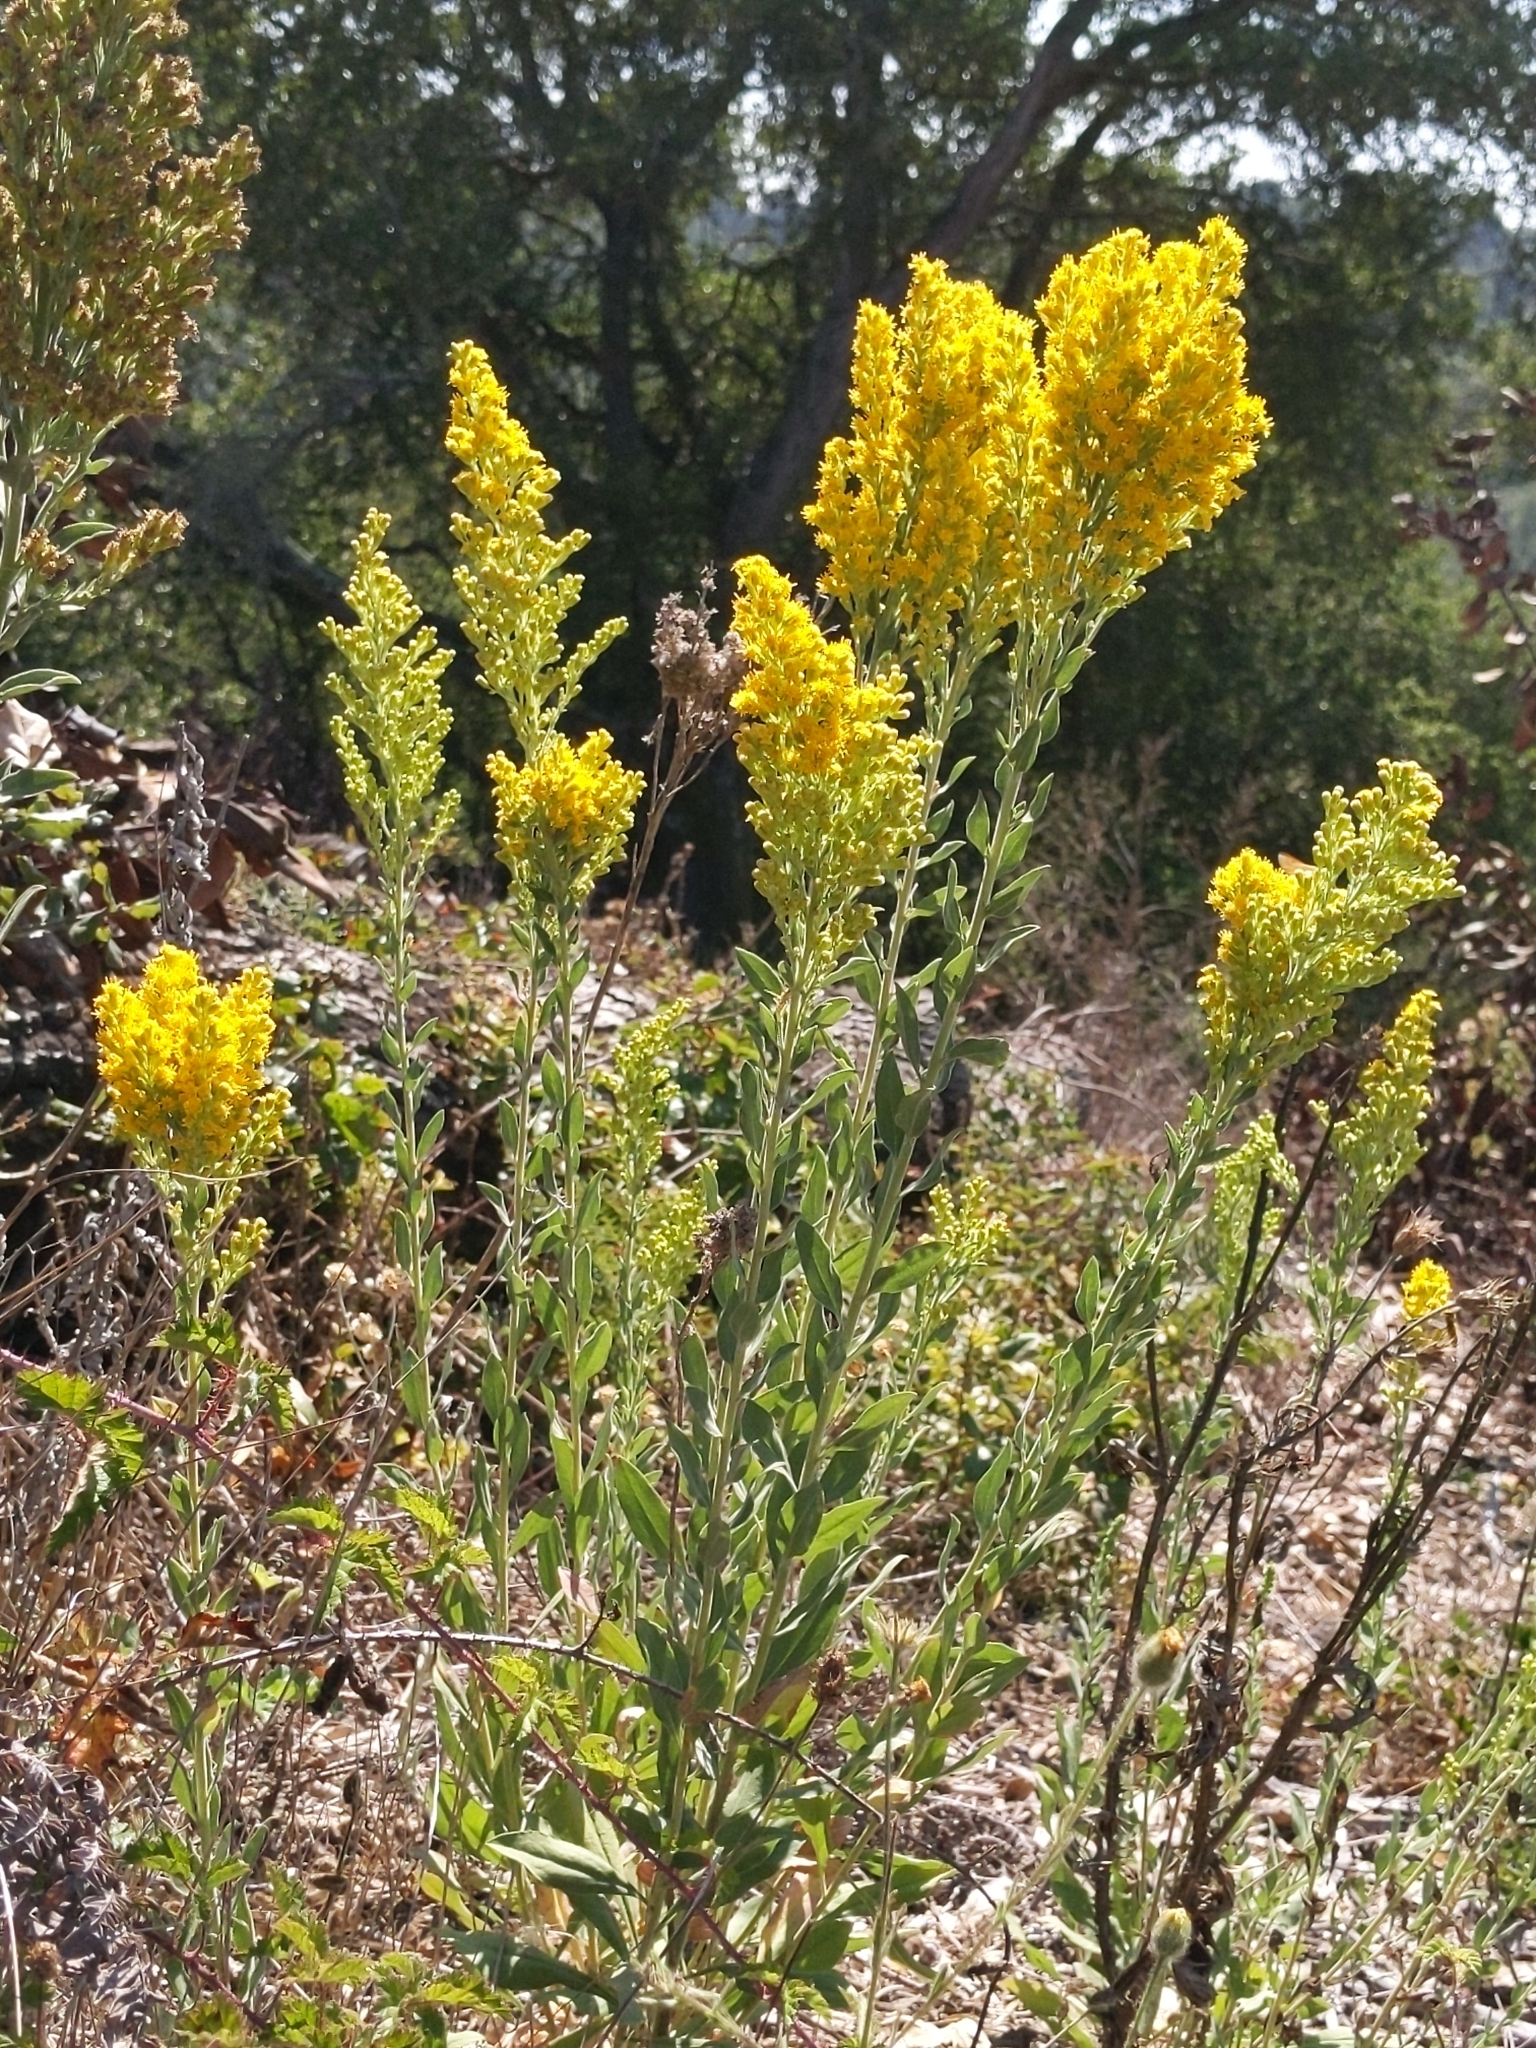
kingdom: Plantae
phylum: Tracheophyta
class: Magnoliopsida
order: Asterales
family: Asteraceae
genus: Solidago
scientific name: Solidago velutina
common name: Three-nerve goldenrod
